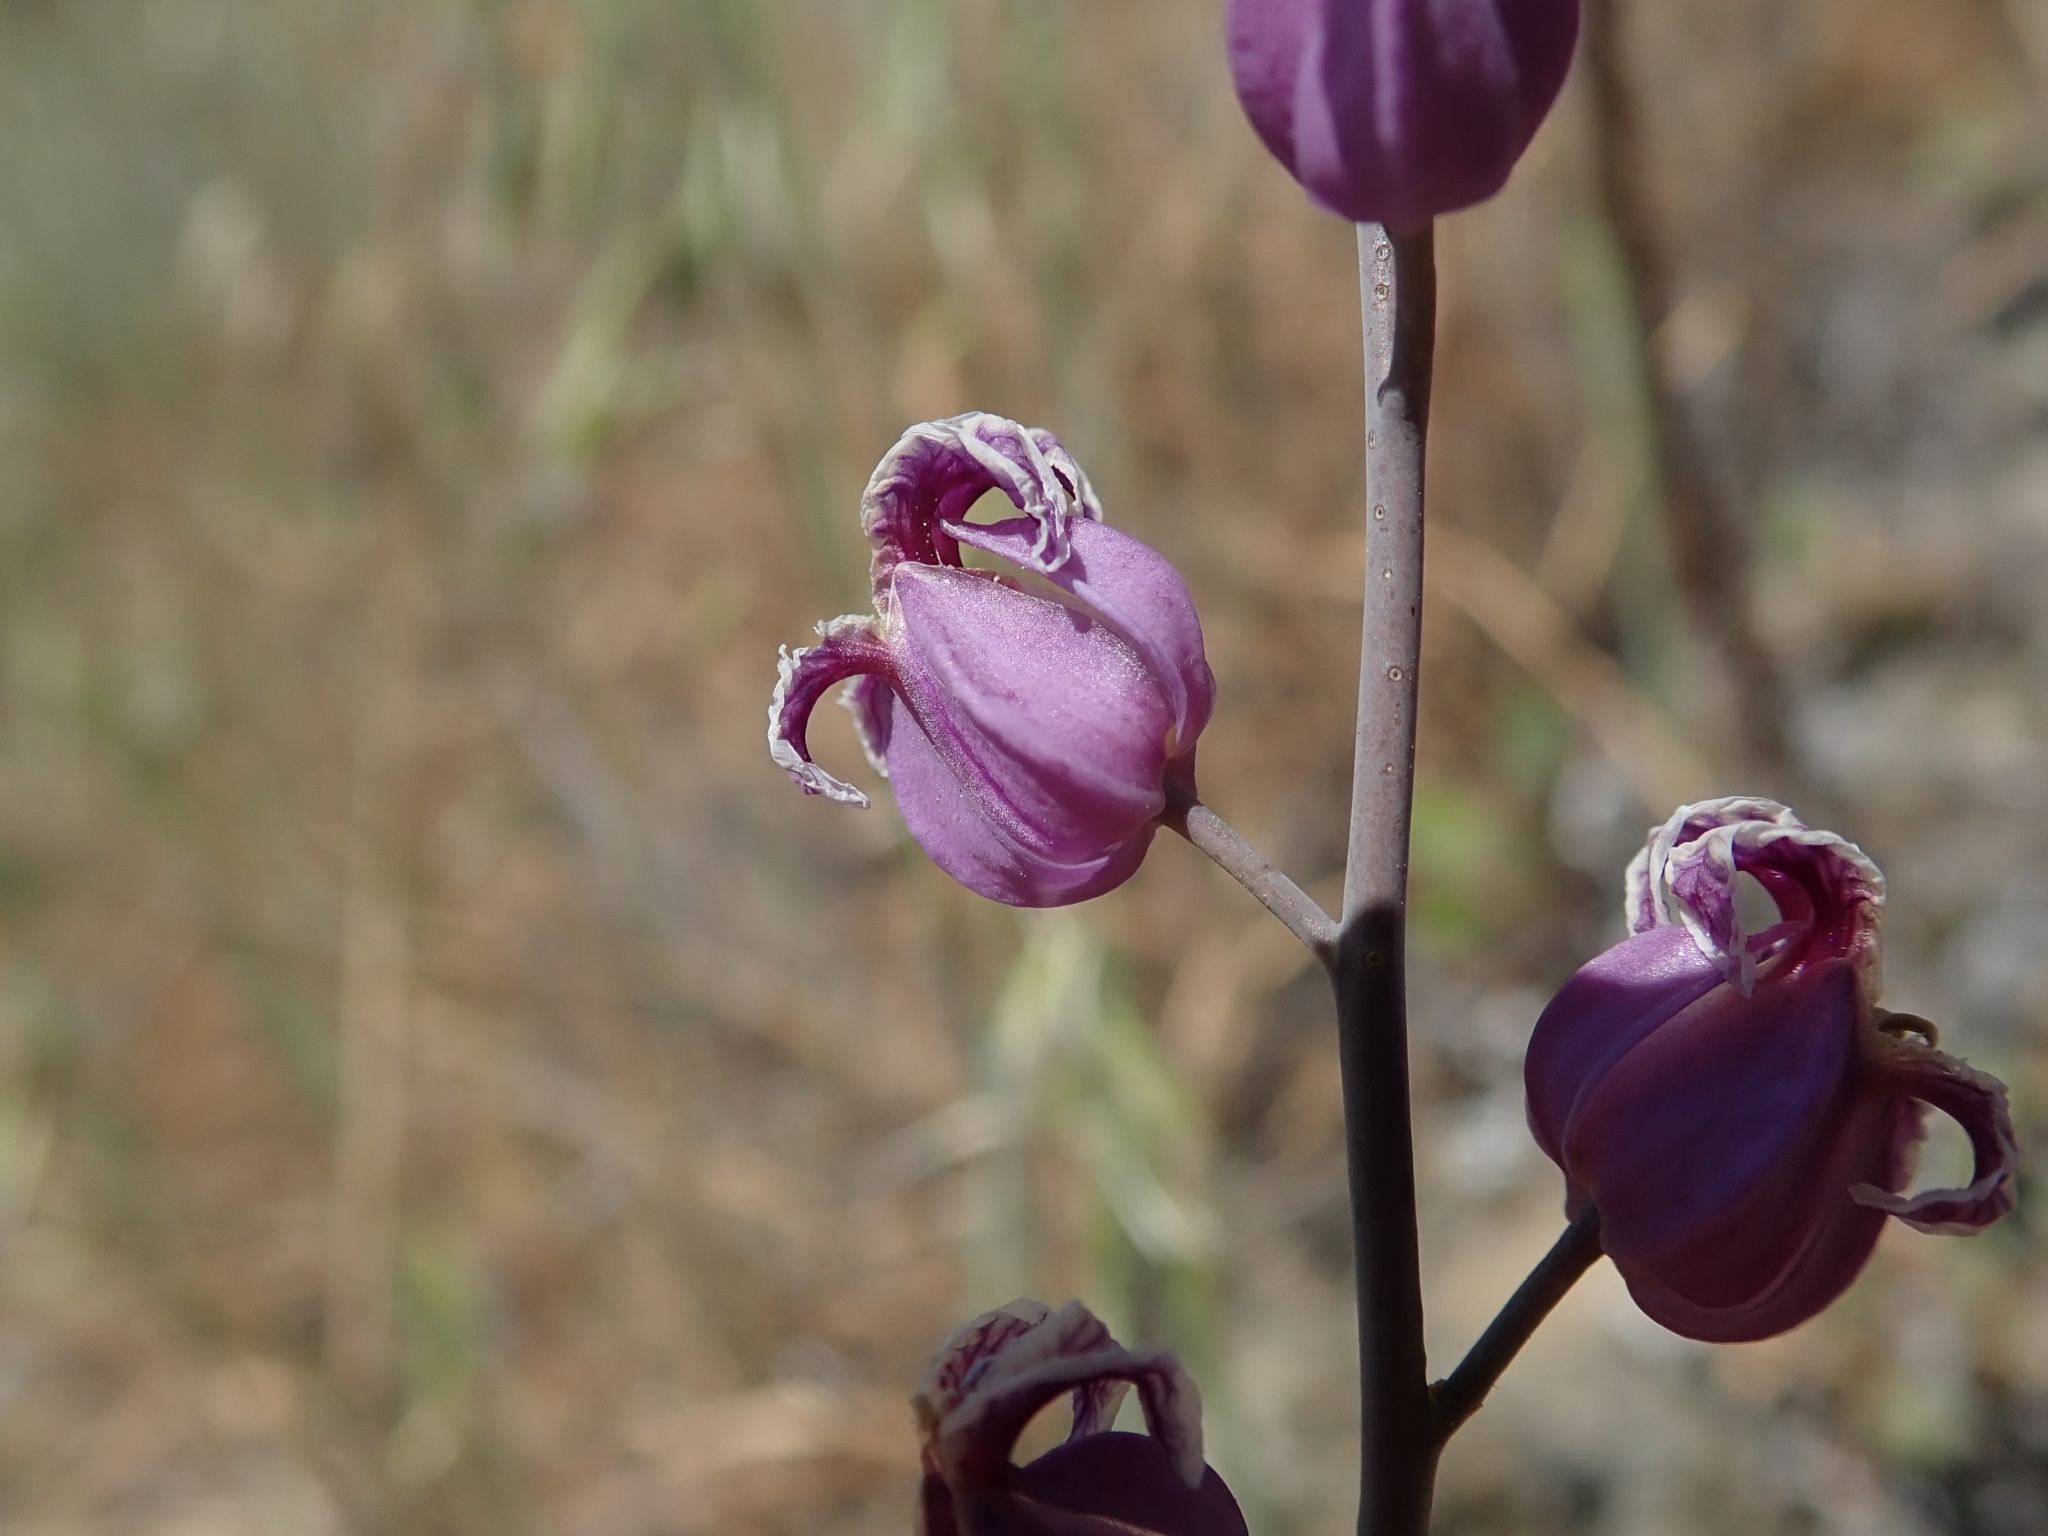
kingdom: Plantae
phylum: Tracheophyta
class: Magnoliopsida
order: Brassicales
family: Brassicaceae
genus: Streptanthus
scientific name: Streptanthus glandulosus
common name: Jewel-flower
